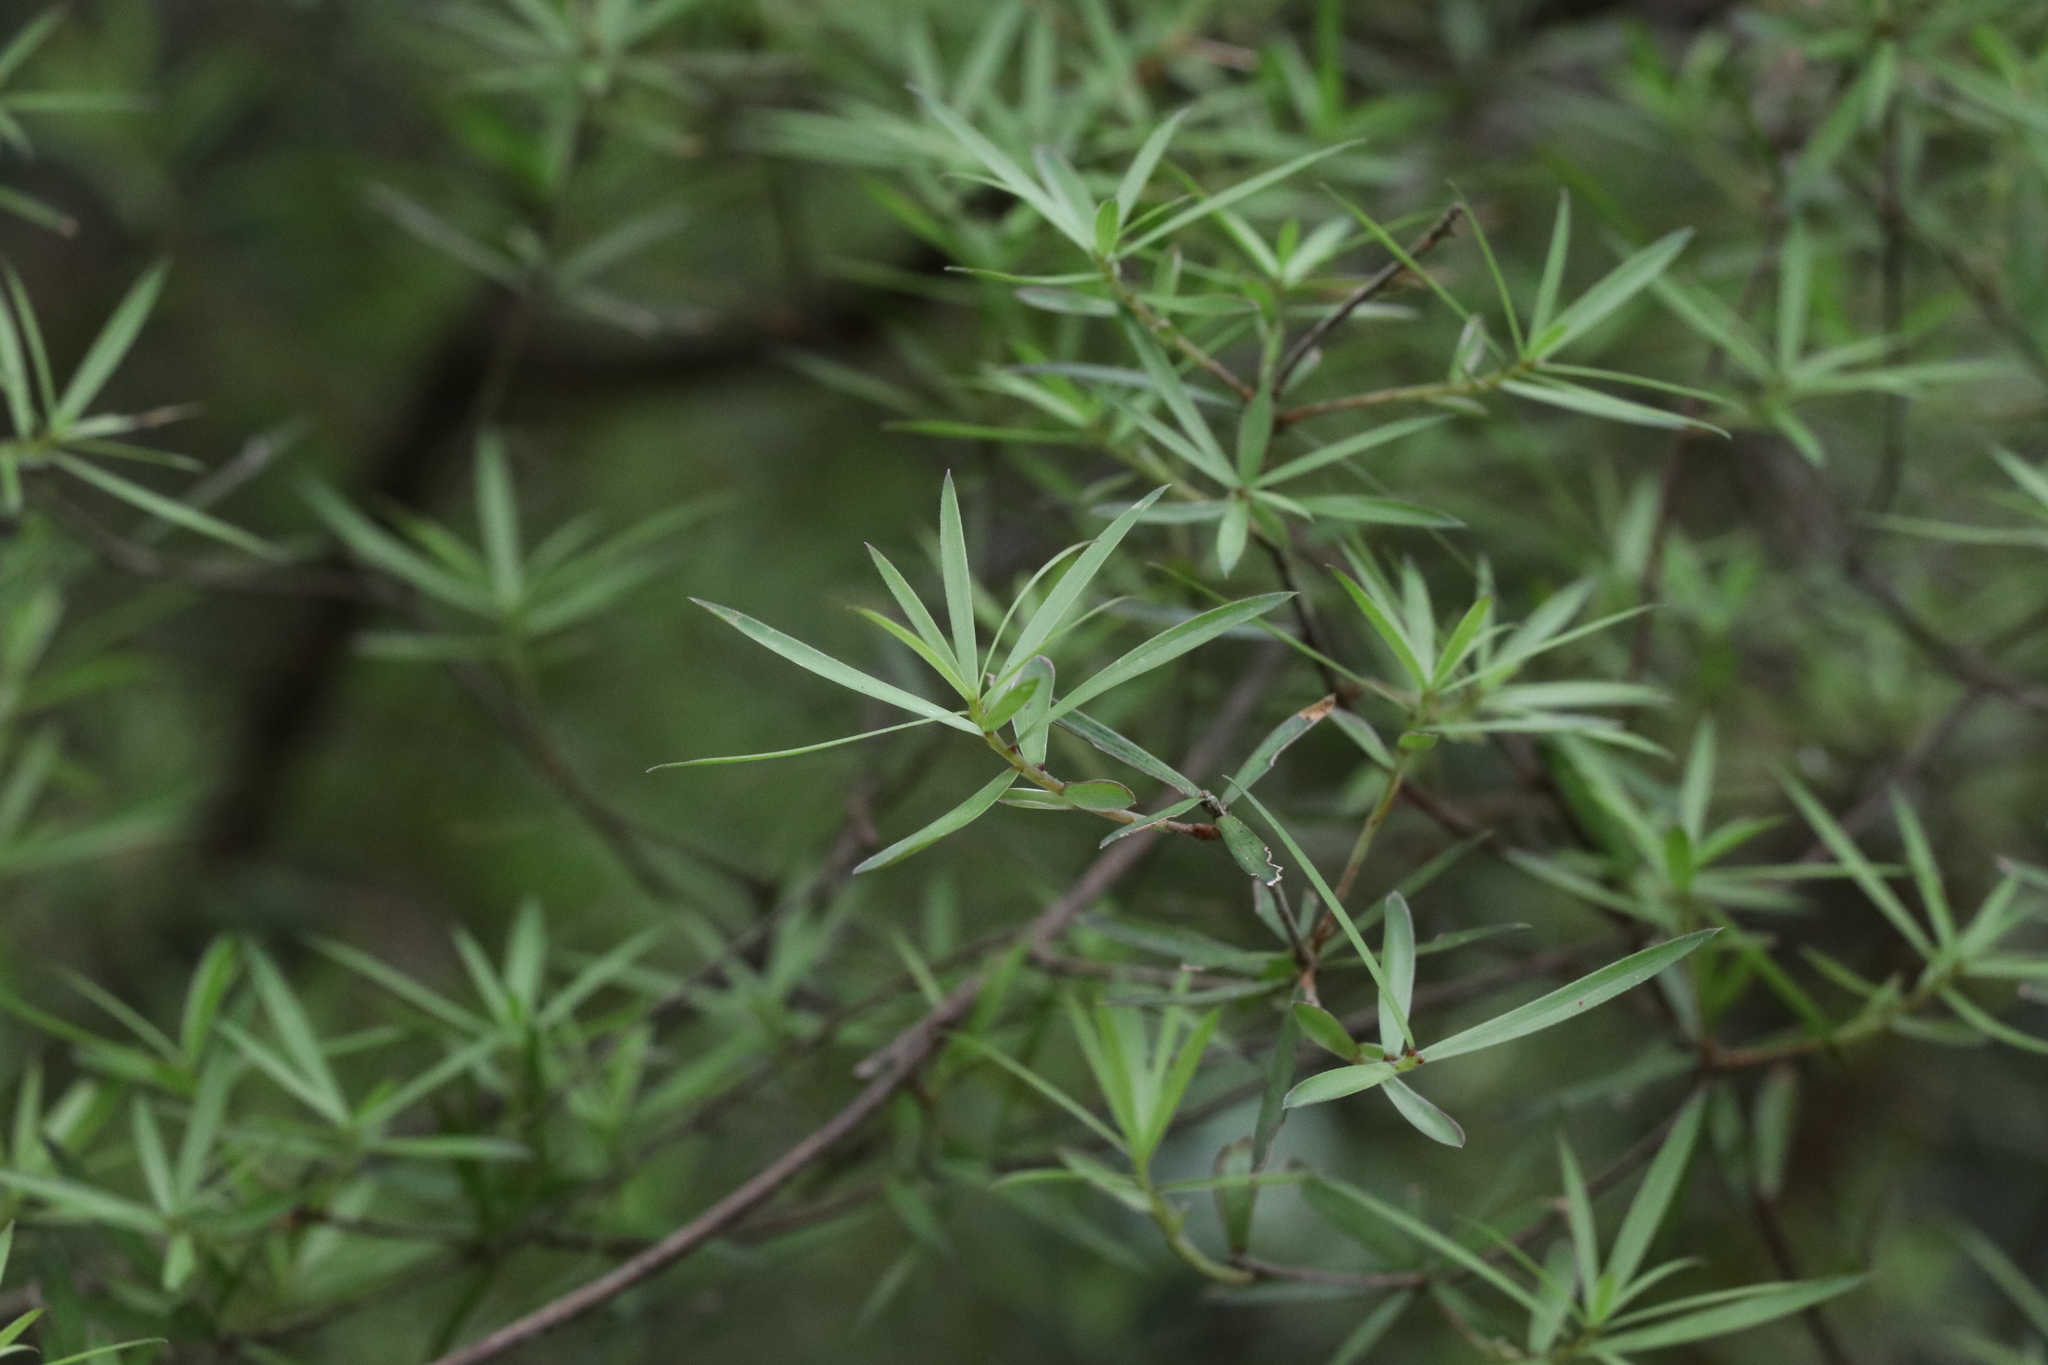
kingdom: Plantae
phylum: Tracheophyta
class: Magnoliopsida
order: Ericales
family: Ericaceae
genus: Leucopogon
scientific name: Leucopogon fasciculatus
